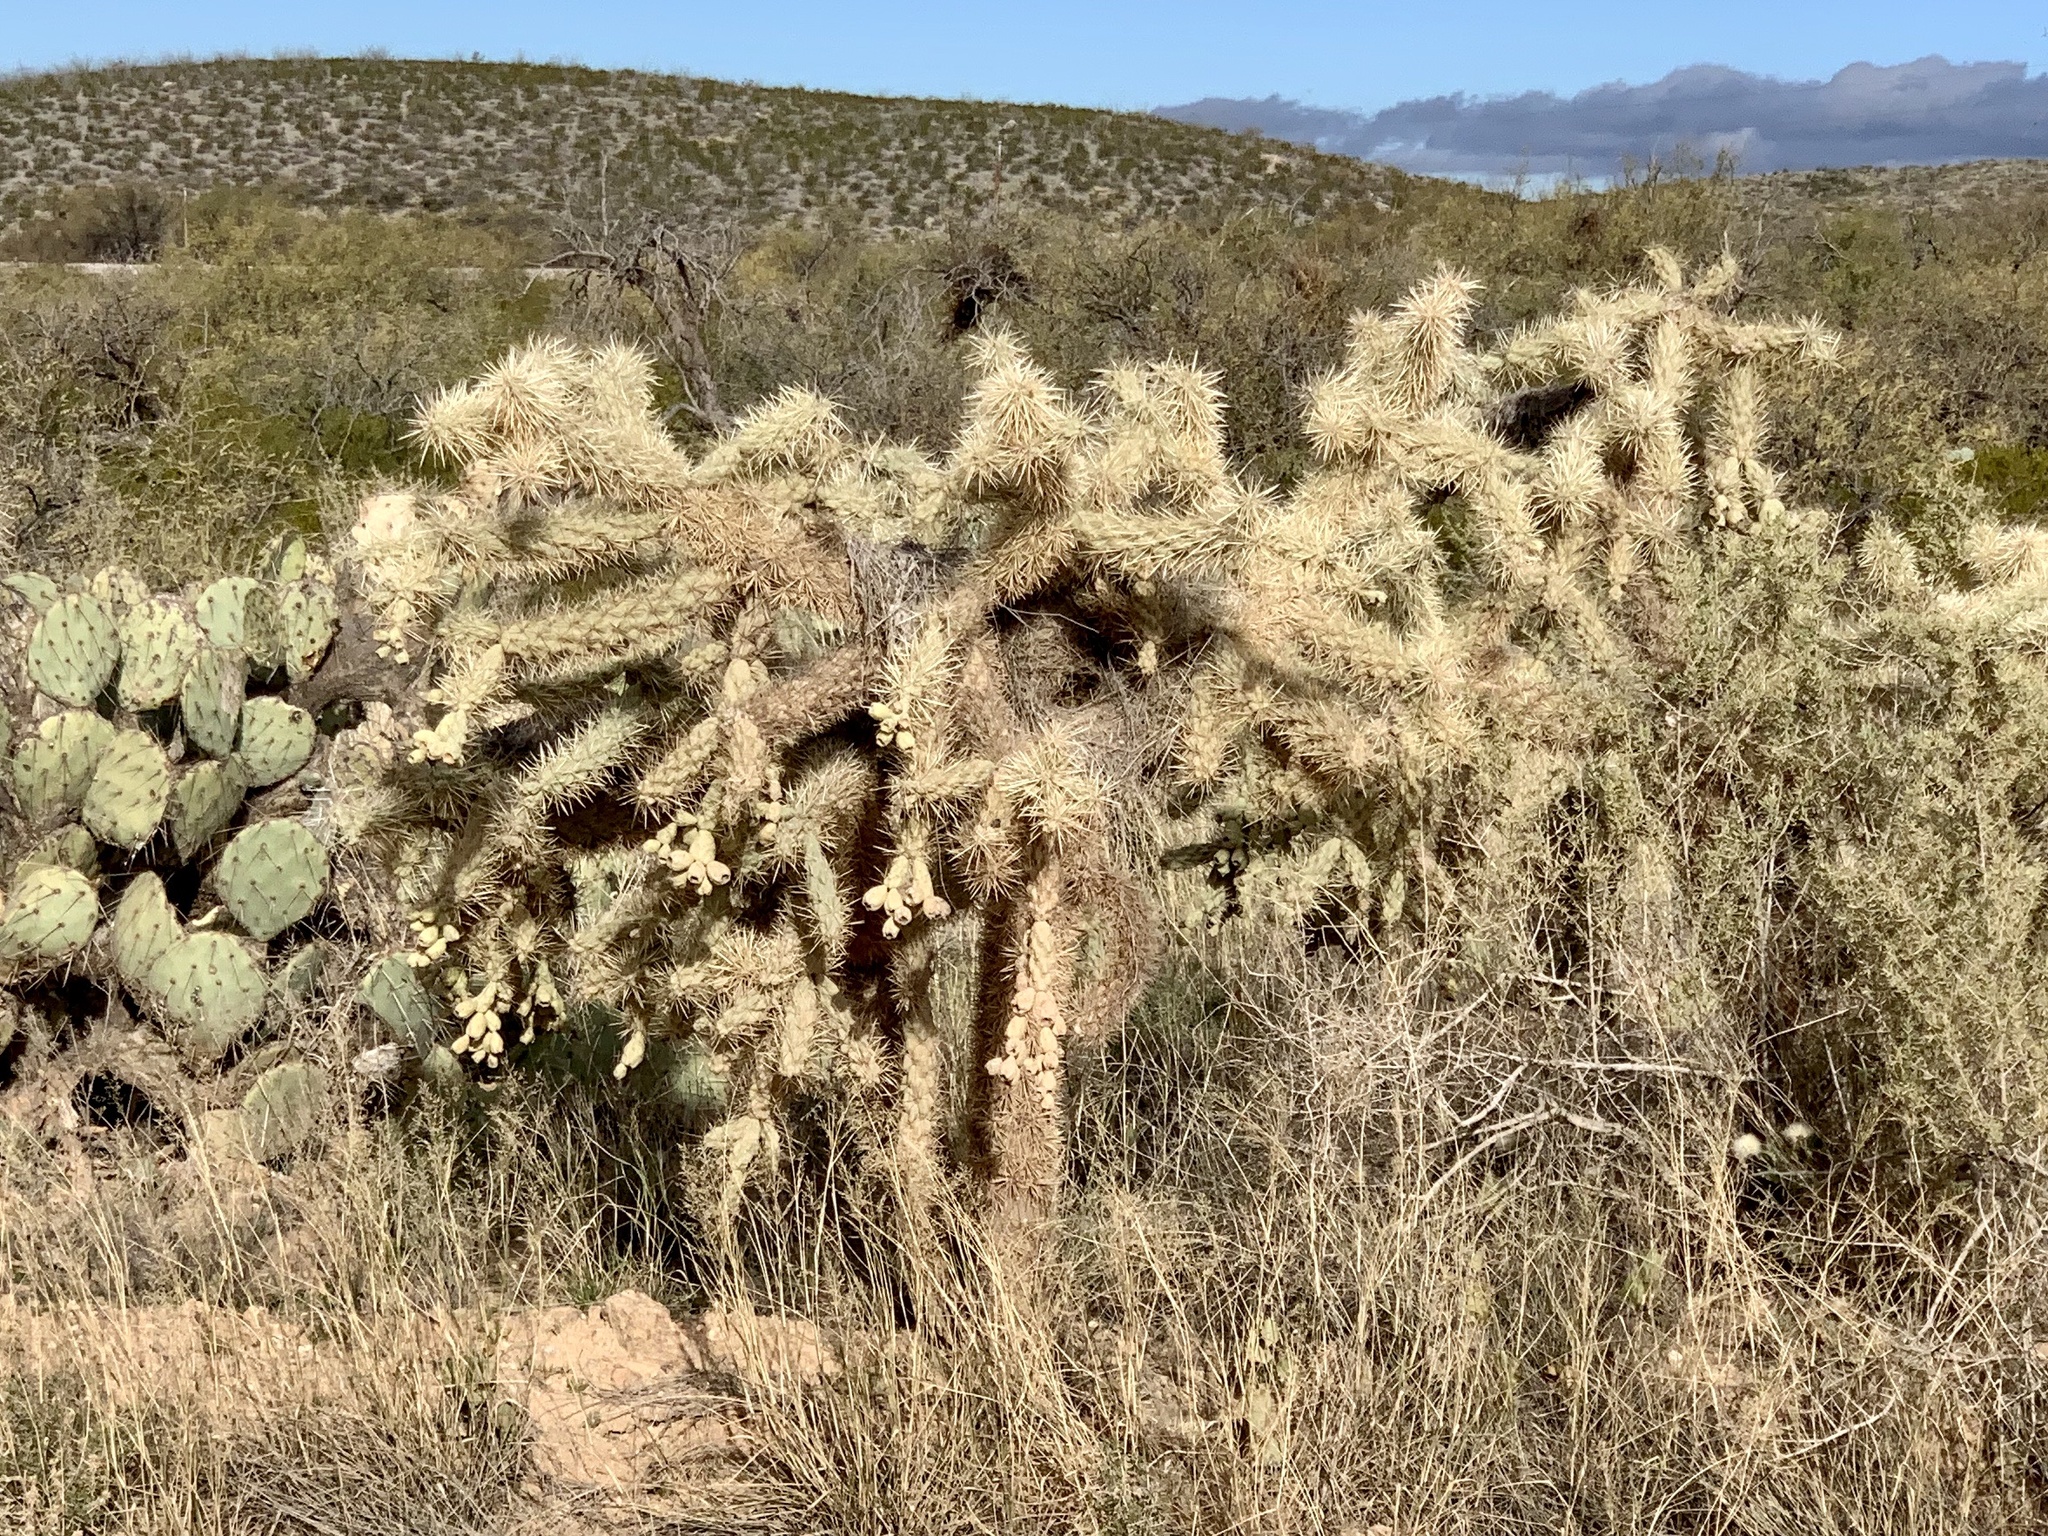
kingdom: Plantae
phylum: Tracheophyta
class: Magnoliopsida
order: Caryophyllales
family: Cactaceae
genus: Cylindropuntia
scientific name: Cylindropuntia fulgida
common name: Jumping cholla
